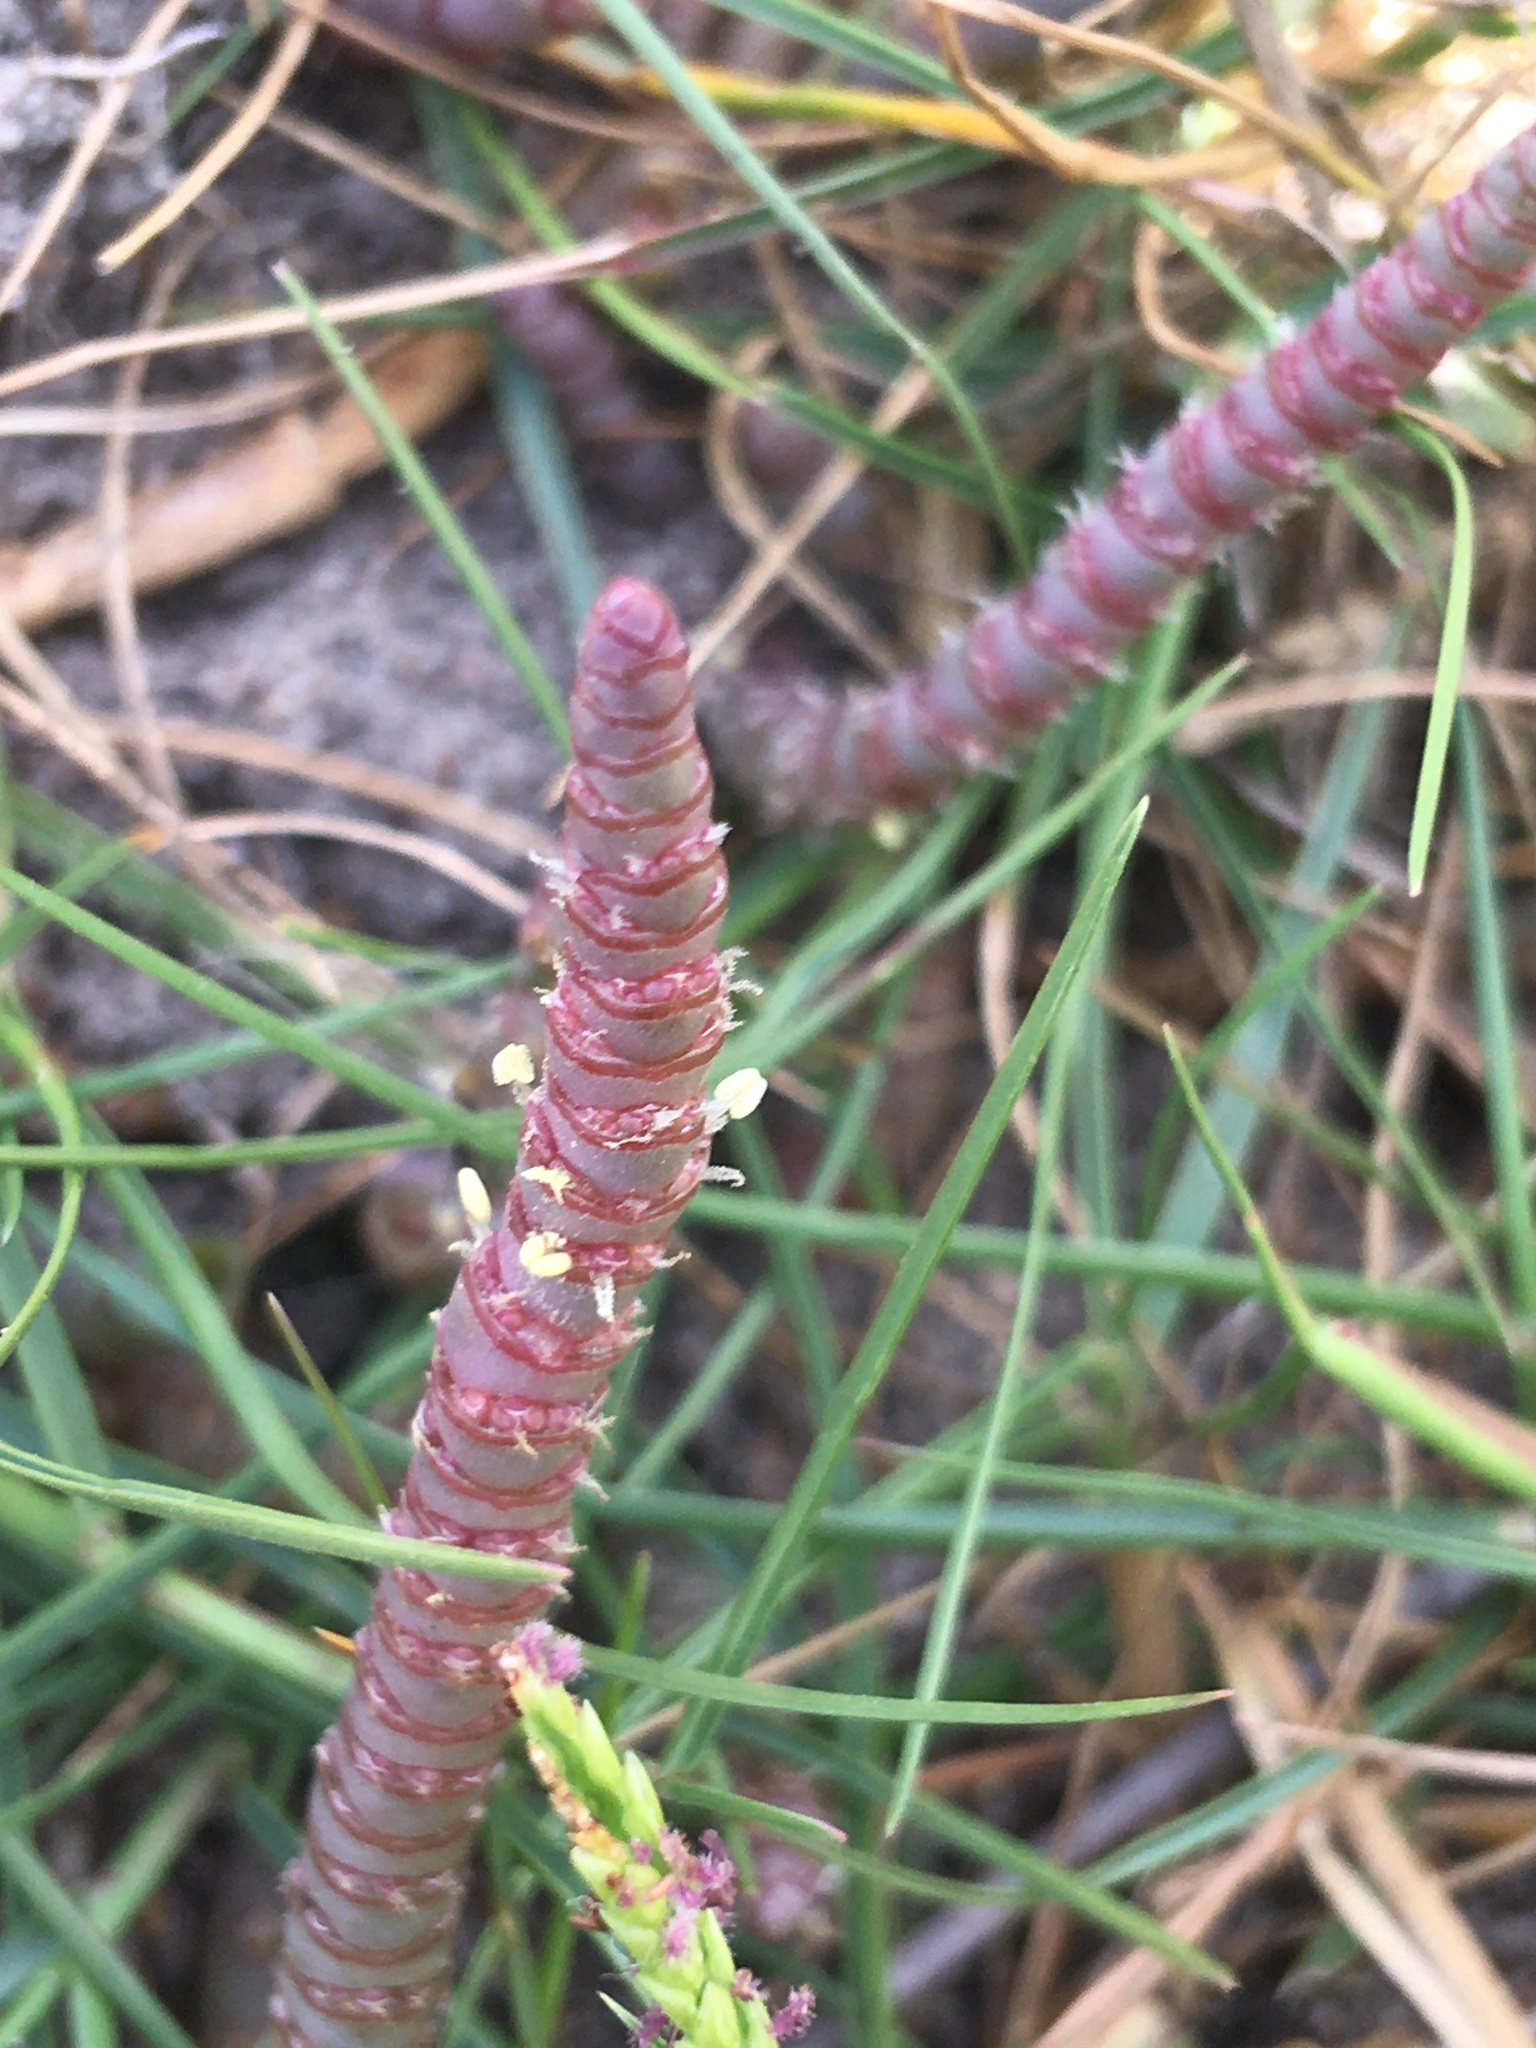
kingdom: Plantae
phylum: Tracheophyta
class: Magnoliopsida
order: Caryophyllales
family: Amaranthaceae
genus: Salicornia
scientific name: Salicornia natalensis
